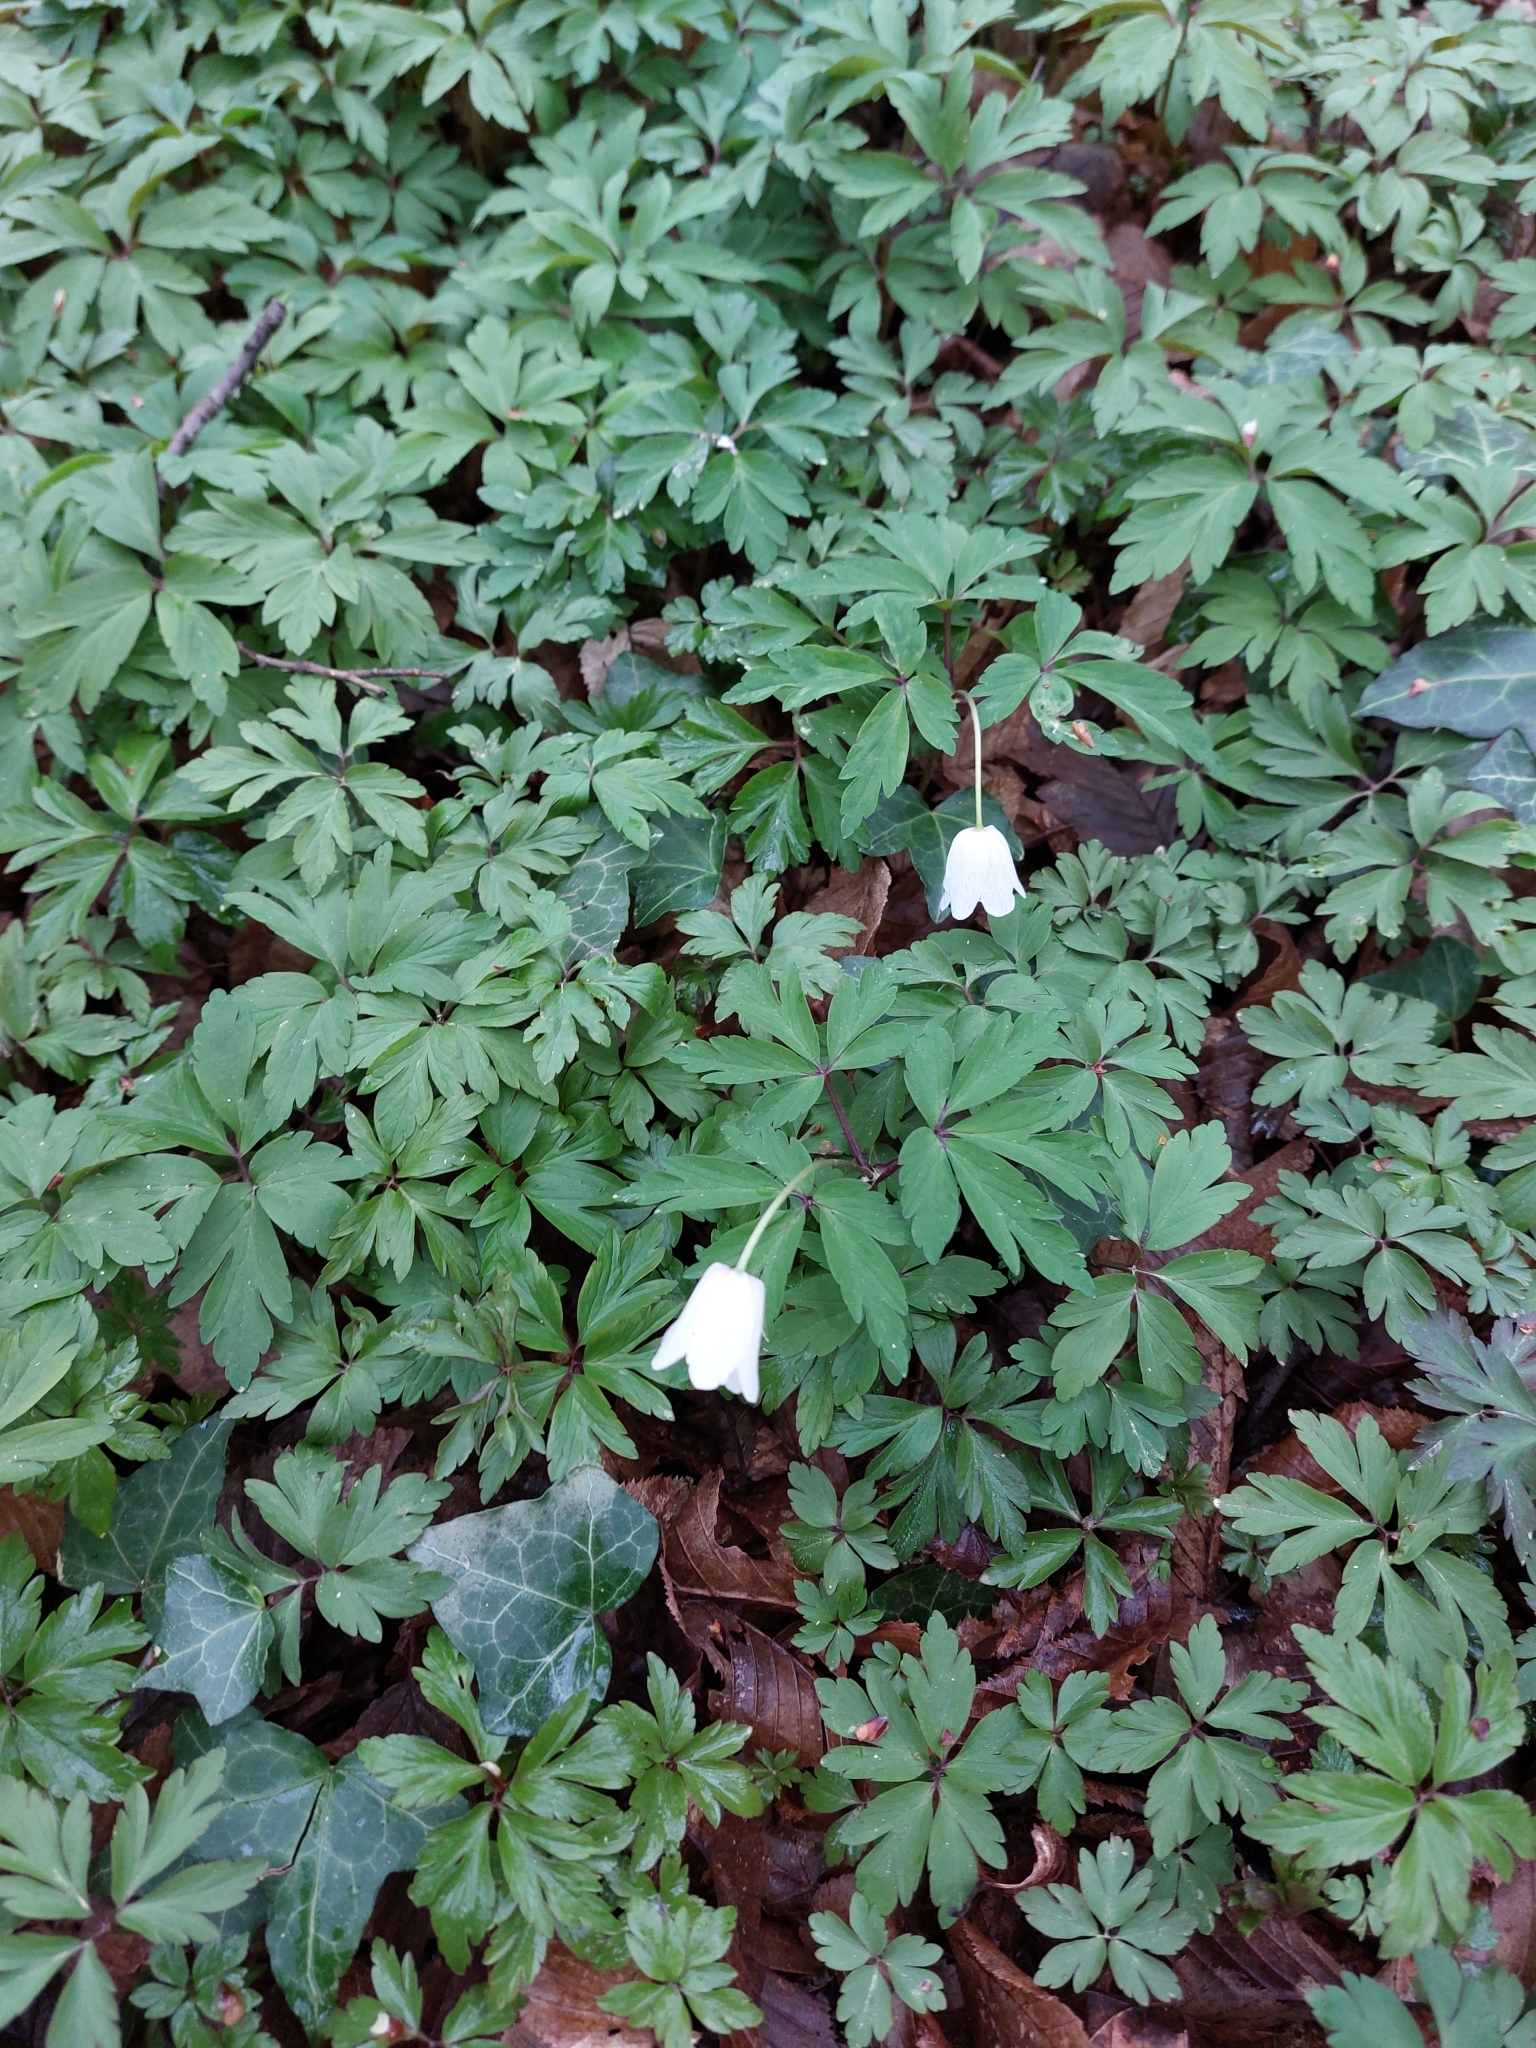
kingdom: Plantae
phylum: Tracheophyta
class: Magnoliopsida
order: Ranunculales
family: Ranunculaceae
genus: Anemone
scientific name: Anemone nemorosa
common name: Wood anemone
